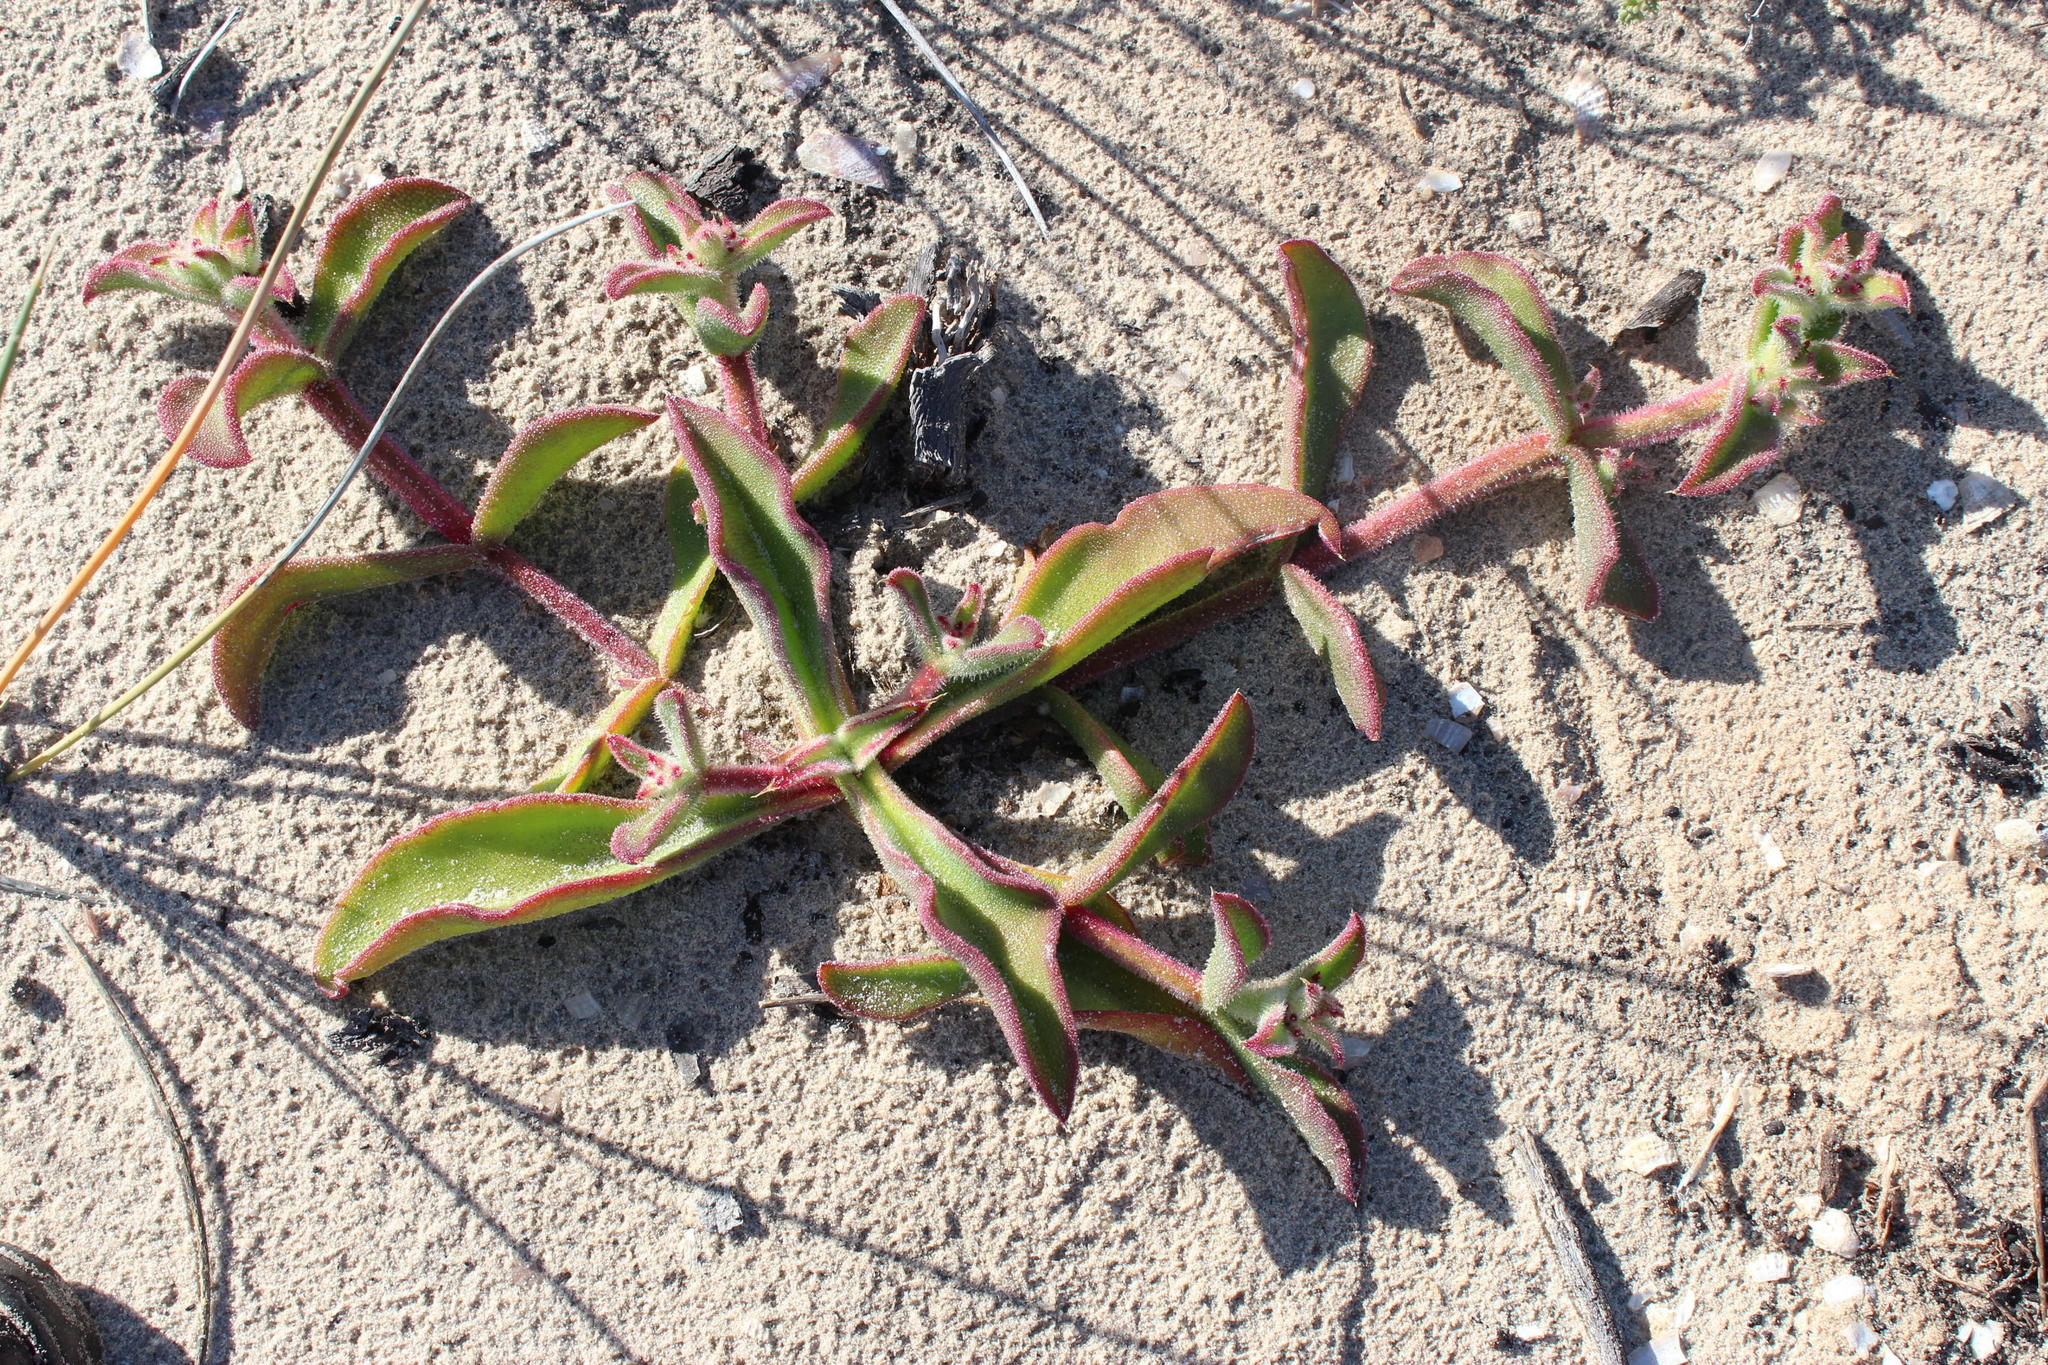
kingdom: Plantae
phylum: Tracheophyta
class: Magnoliopsida
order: Caryophyllales
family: Aizoaceae
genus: Mesembryanthemum
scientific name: Mesembryanthemum pellitum
